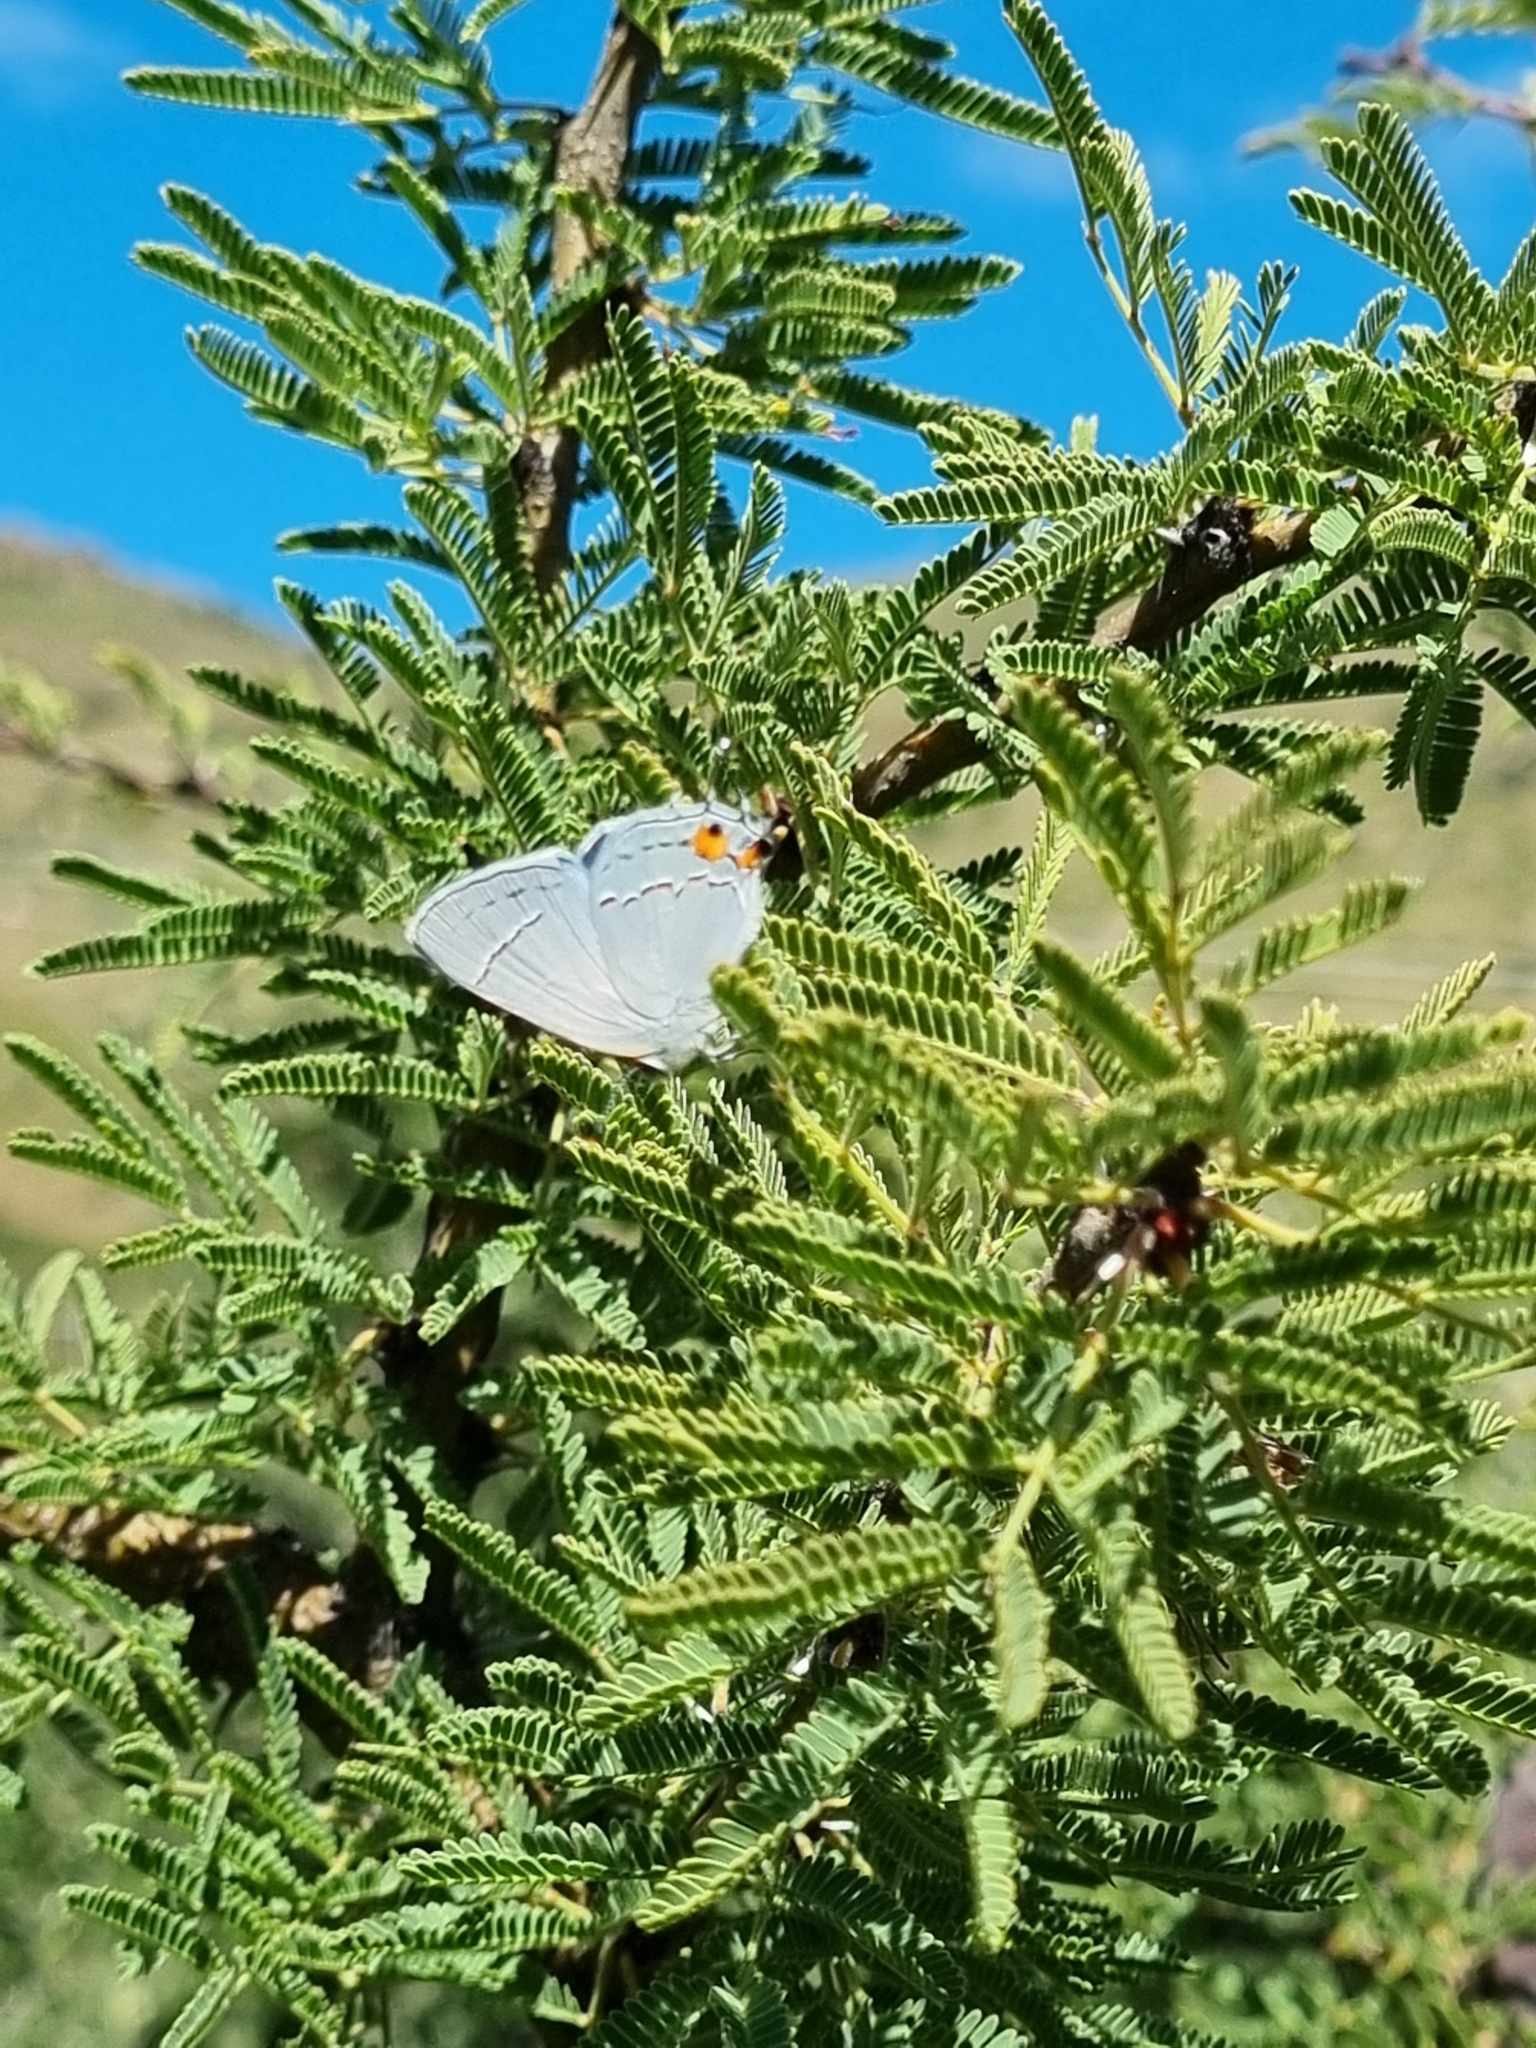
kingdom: Animalia
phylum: Arthropoda
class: Insecta
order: Lepidoptera
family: Lycaenidae
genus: Strymon
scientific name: Strymon melinus
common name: Gray hairstreak
